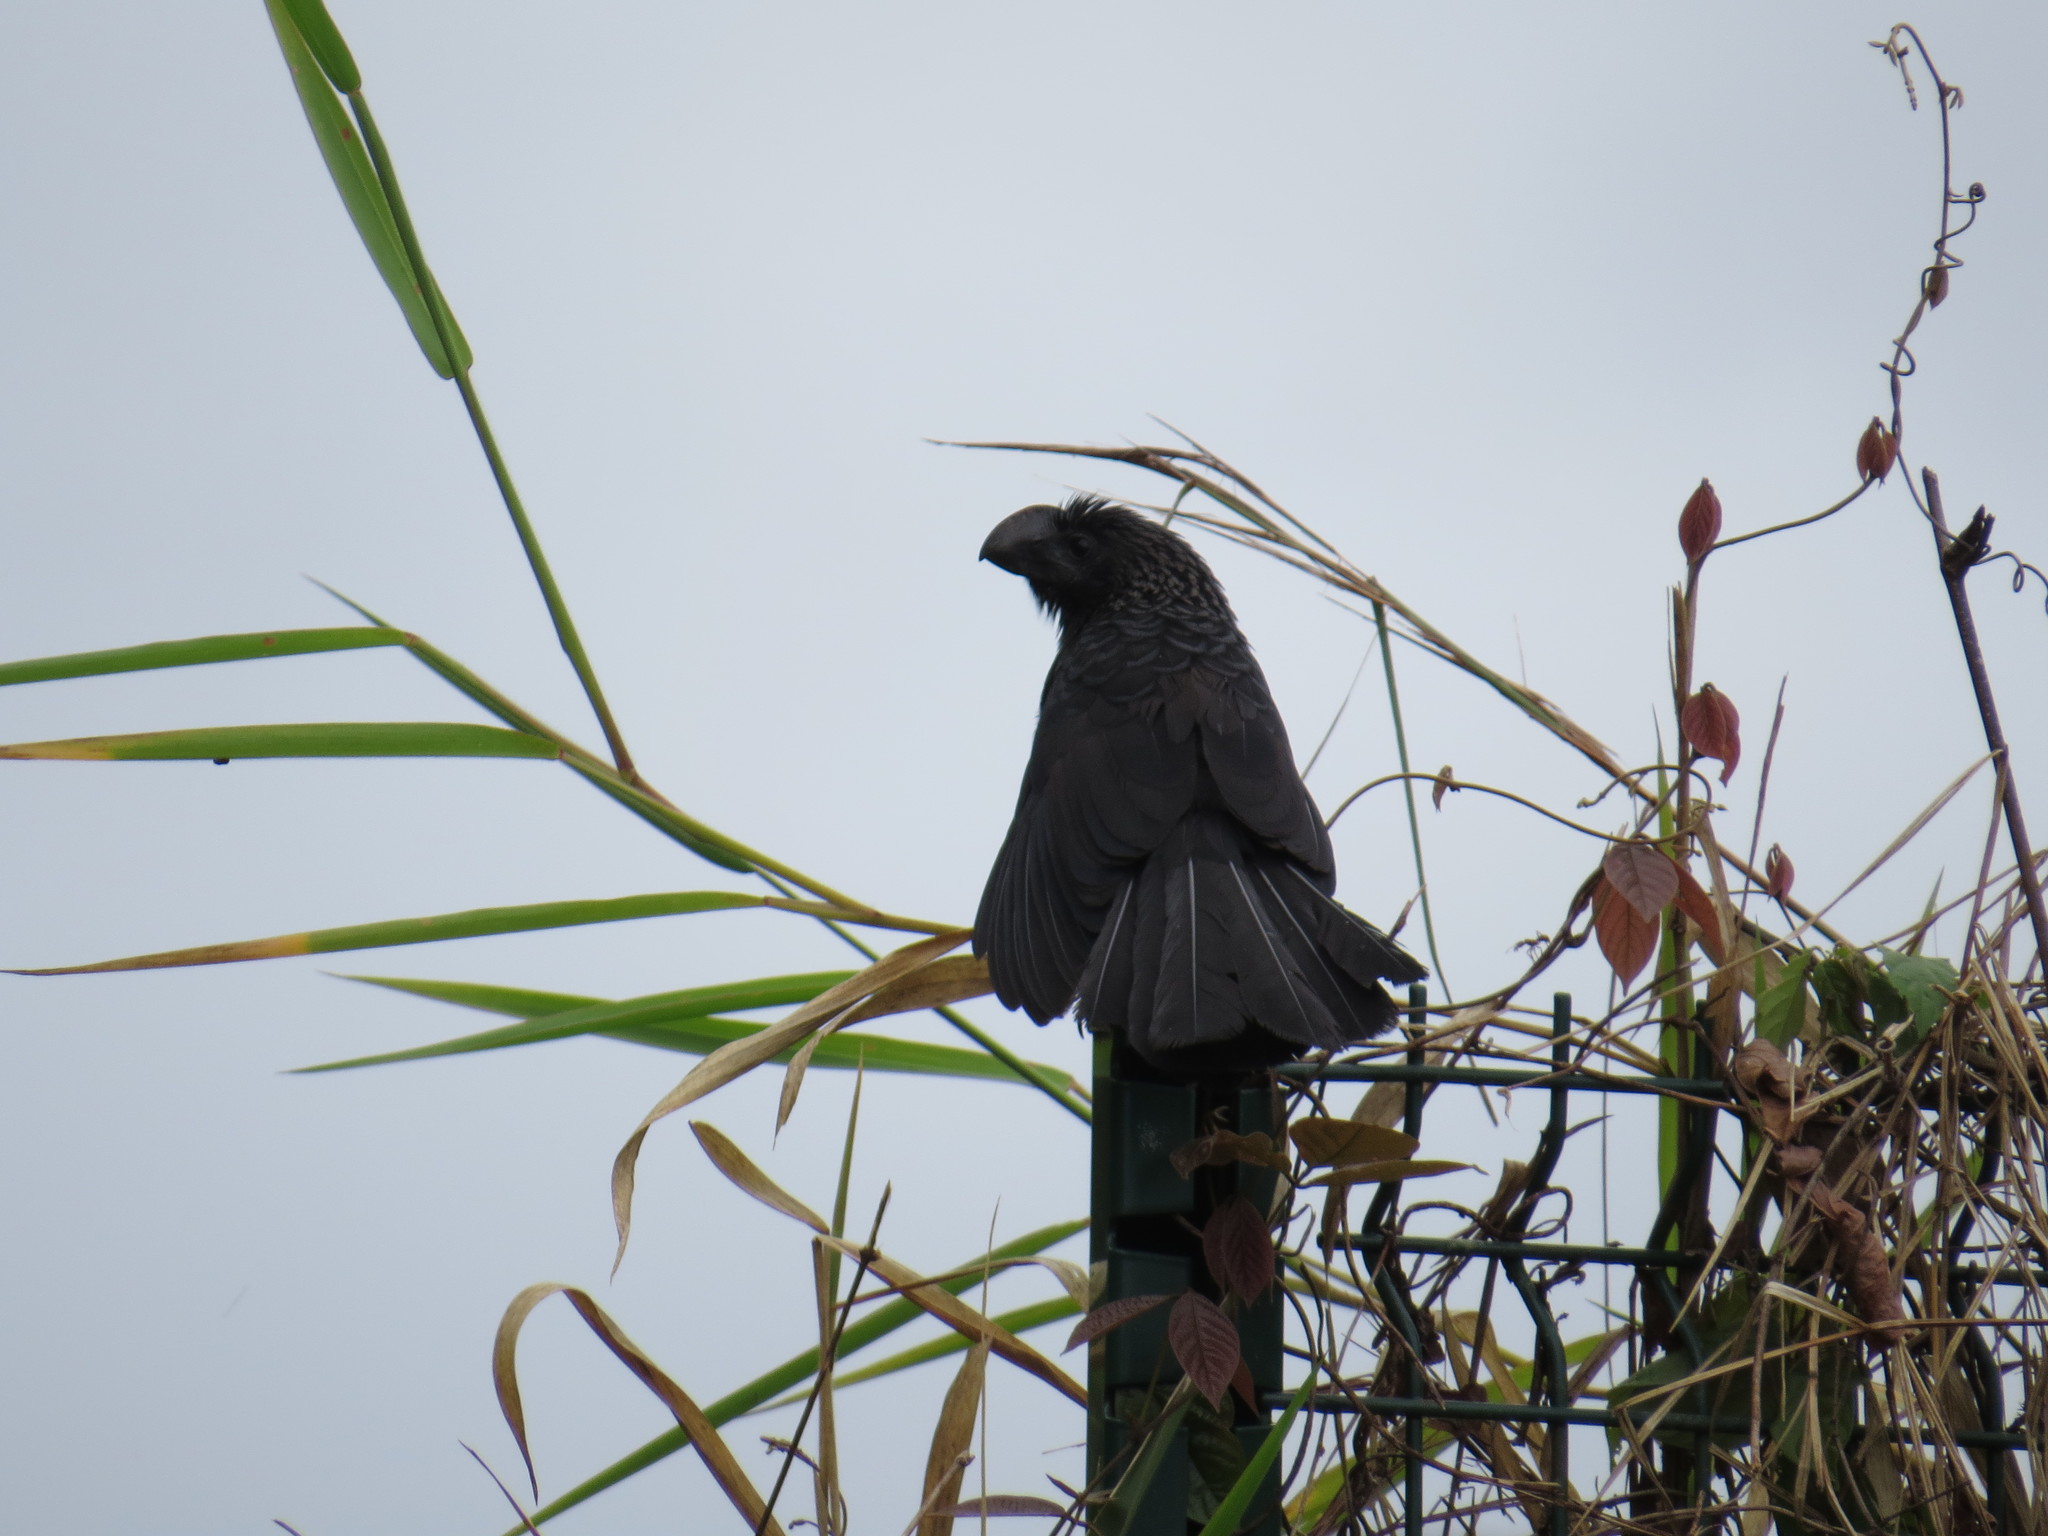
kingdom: Animalia
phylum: Chordata
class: Aves
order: Cuculiformes
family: Cuculidae
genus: Crotophaga
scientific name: Crotophaga ani
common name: Smooth-billed ani
